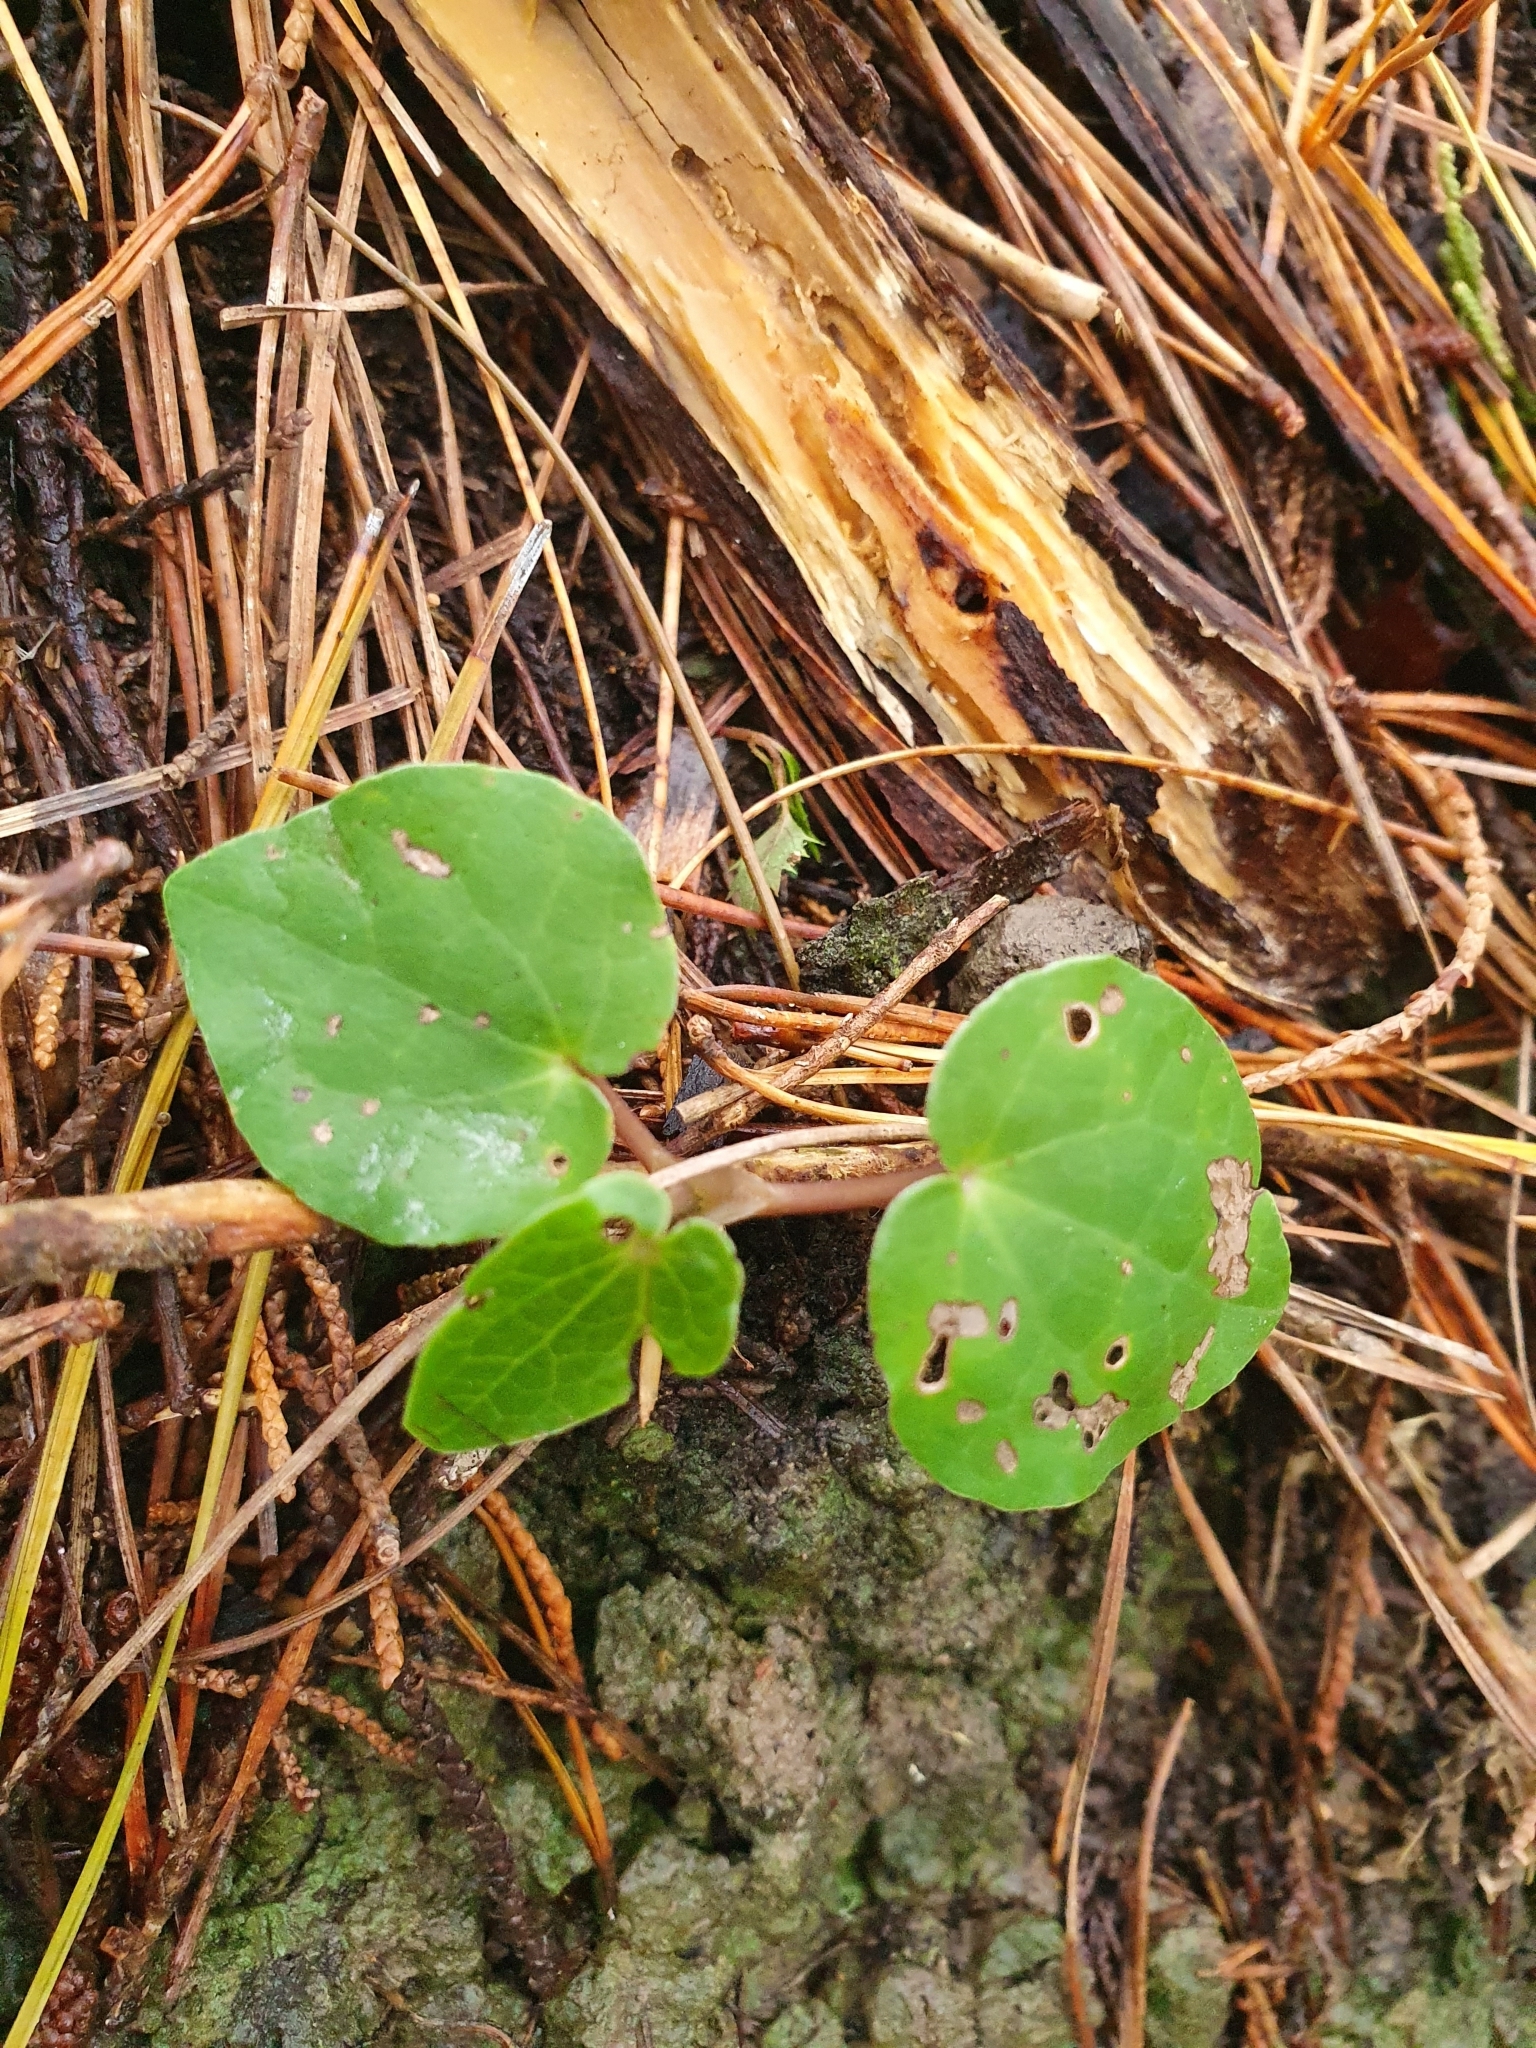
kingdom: Plantae
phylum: Tracheophyta
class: Magnoliopsida
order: Piperales
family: Piperaceae
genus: Macropiper
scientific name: Macropiper excelsum
